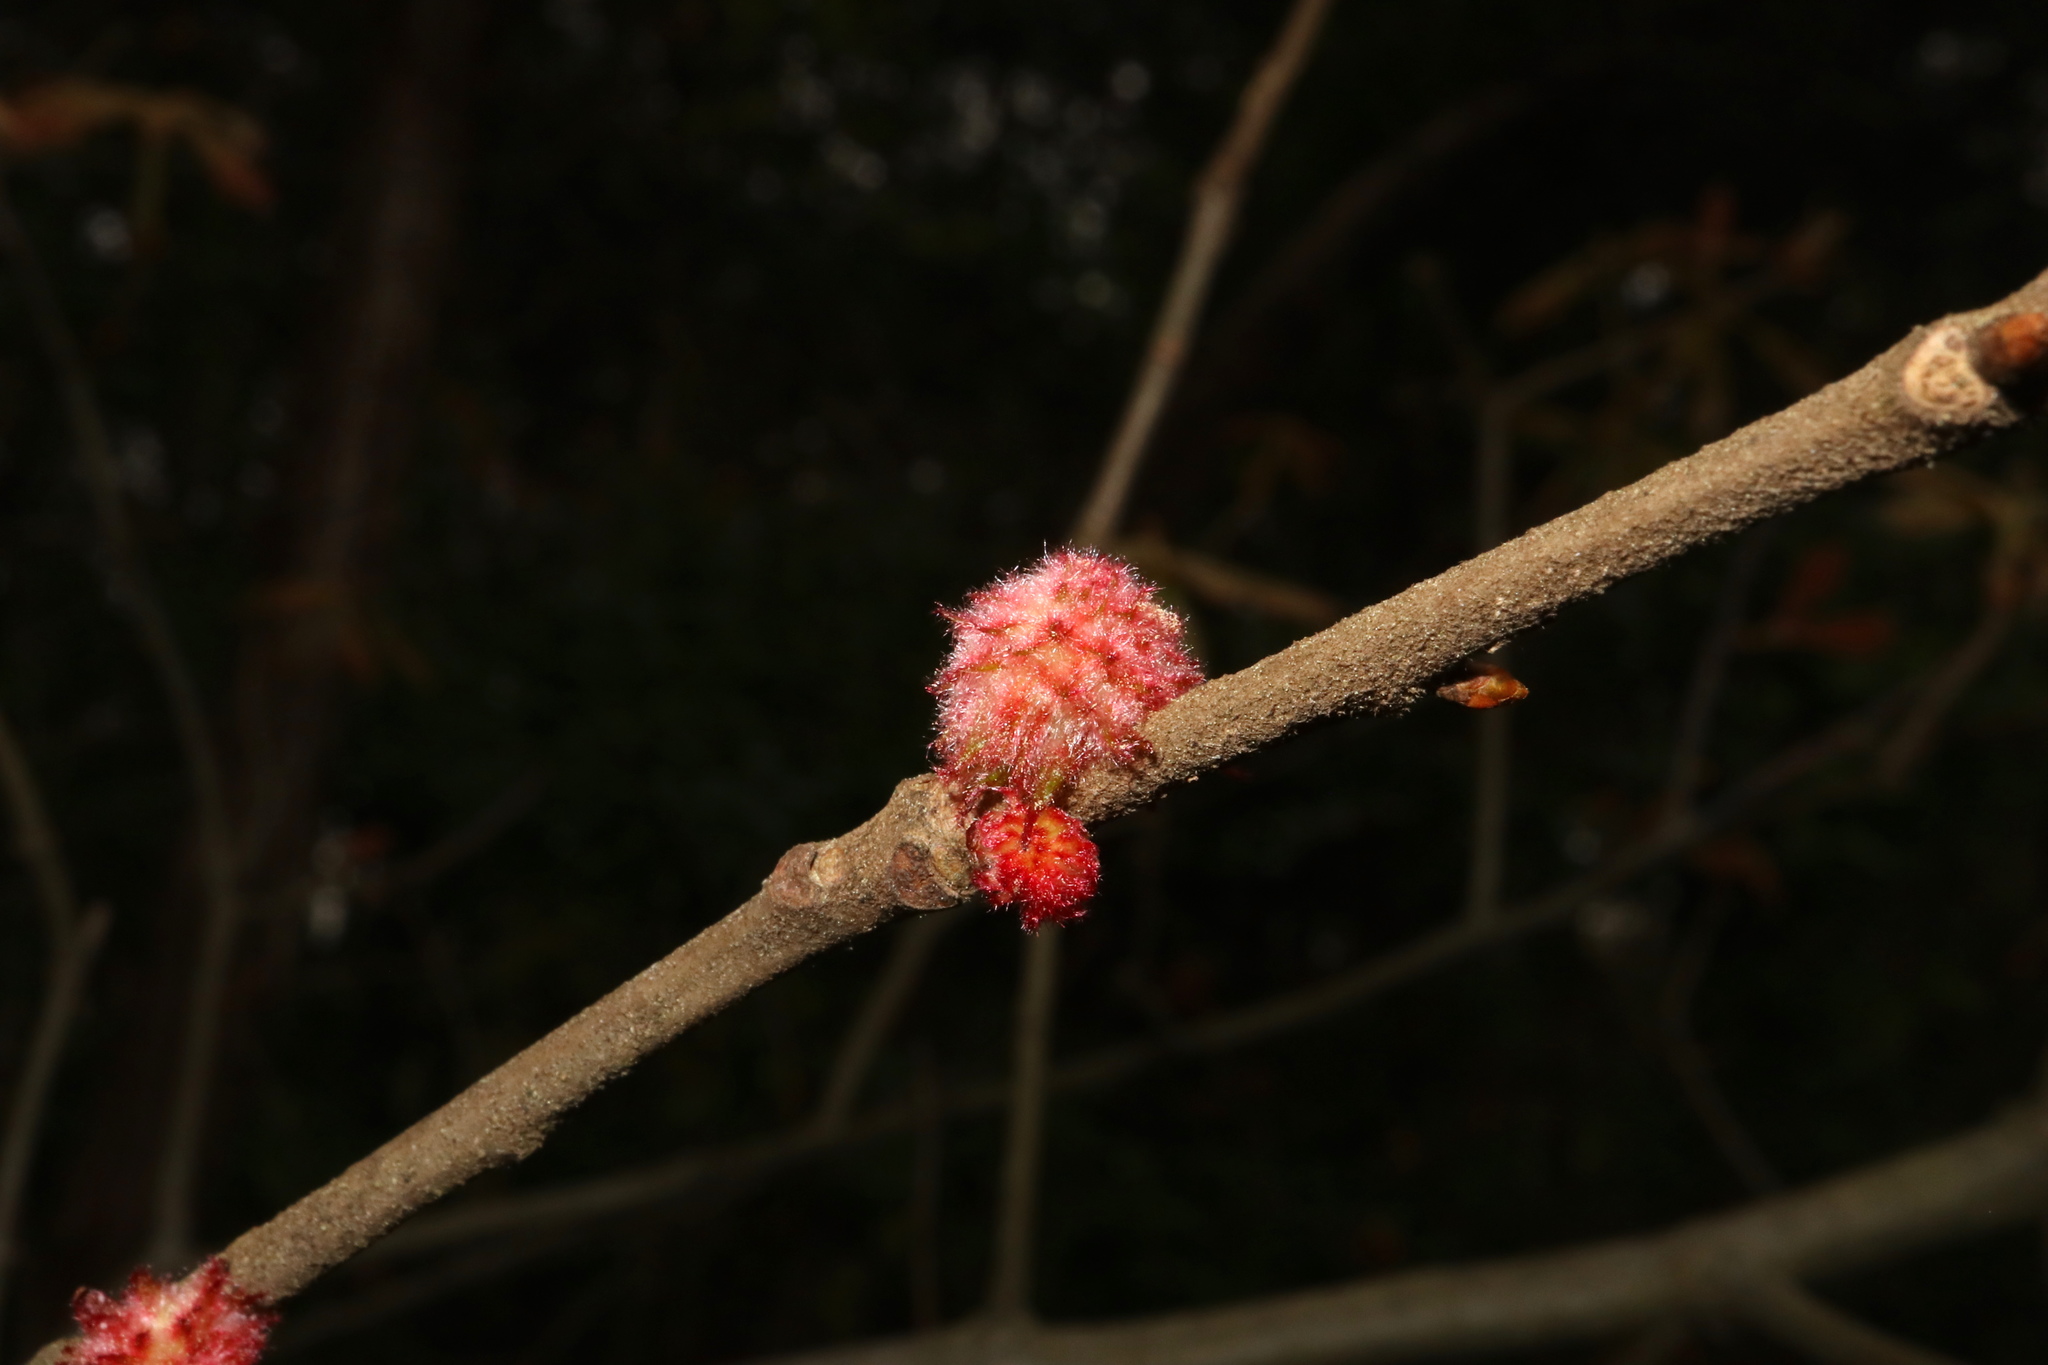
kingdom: Animalia
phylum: Arthropoda
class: Insecta
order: Hymenoptera
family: Cynipidae
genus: Dryocosmus
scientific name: Dryocosmus
